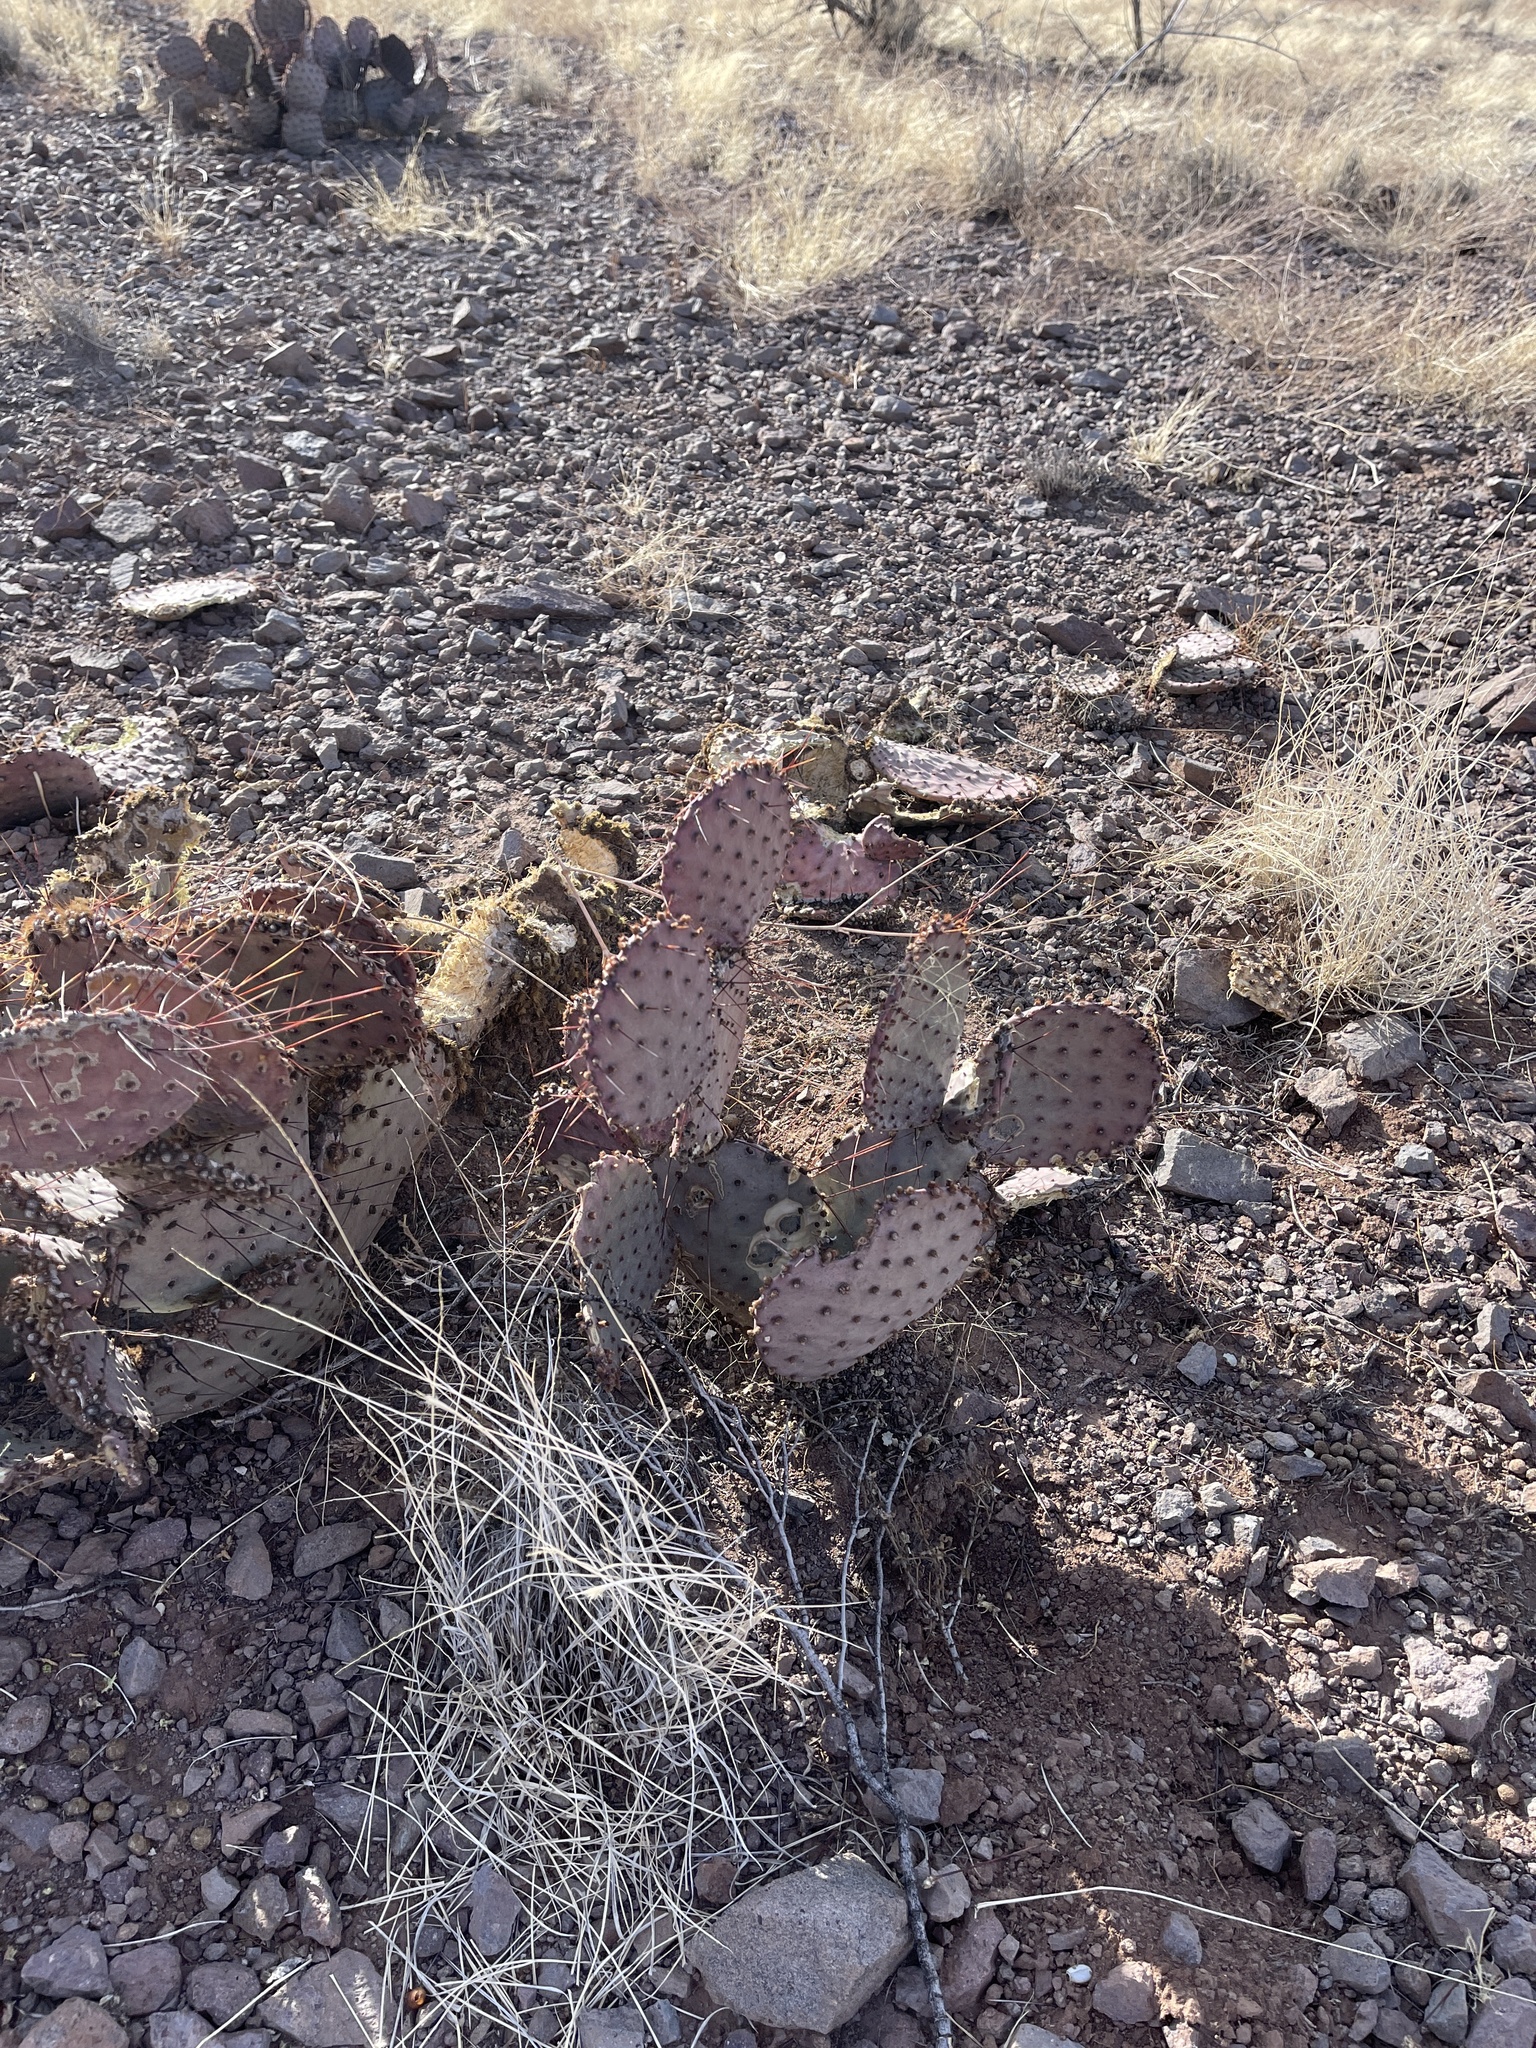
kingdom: Plantae
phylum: Tracheophyta
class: Magnoliopsida
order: Caryophyllales
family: Cactaceae
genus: Opuntia
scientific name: Opuntia macrocentra
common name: Purple prickly-pear
